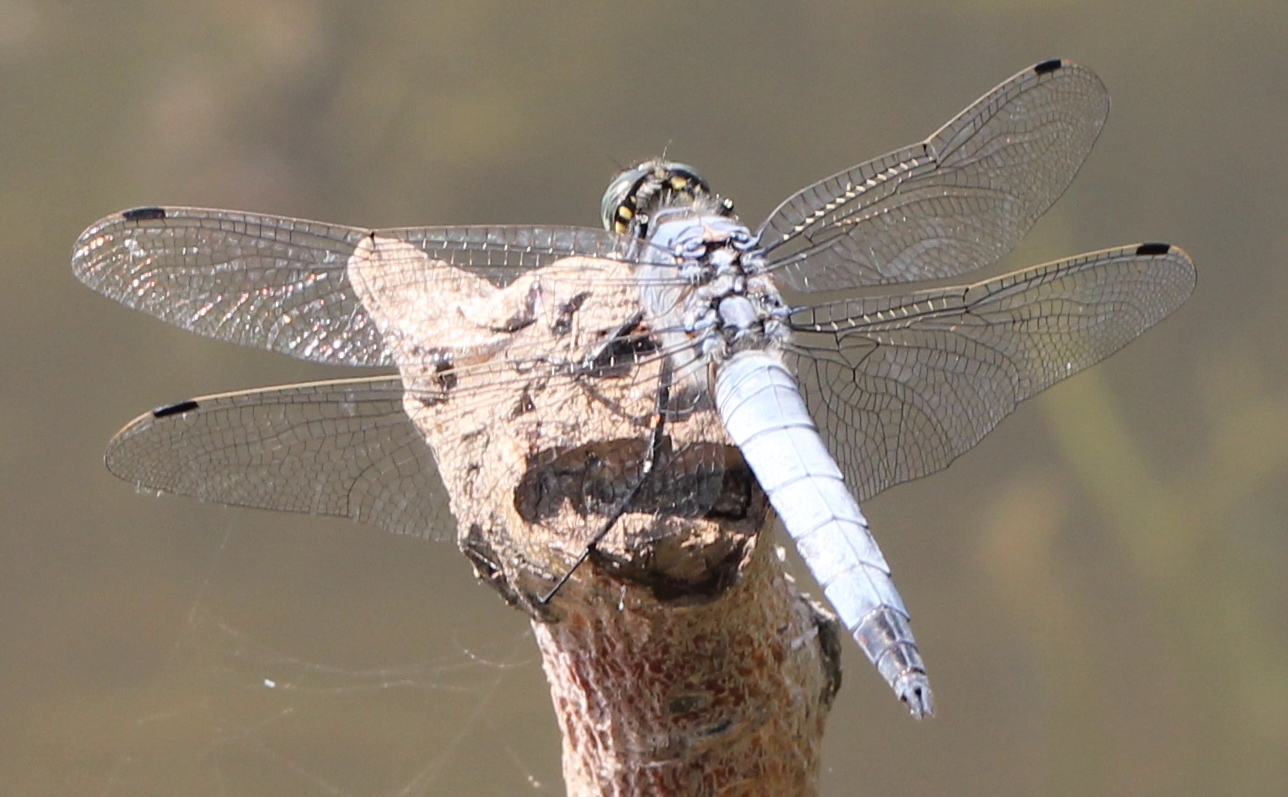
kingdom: Animalia
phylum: Arthropoda
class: Insecta
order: Odonata
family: Libellulidae
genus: Orthetrum
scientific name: Orthetrum cancellatum
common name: Black-tailed skimmer
